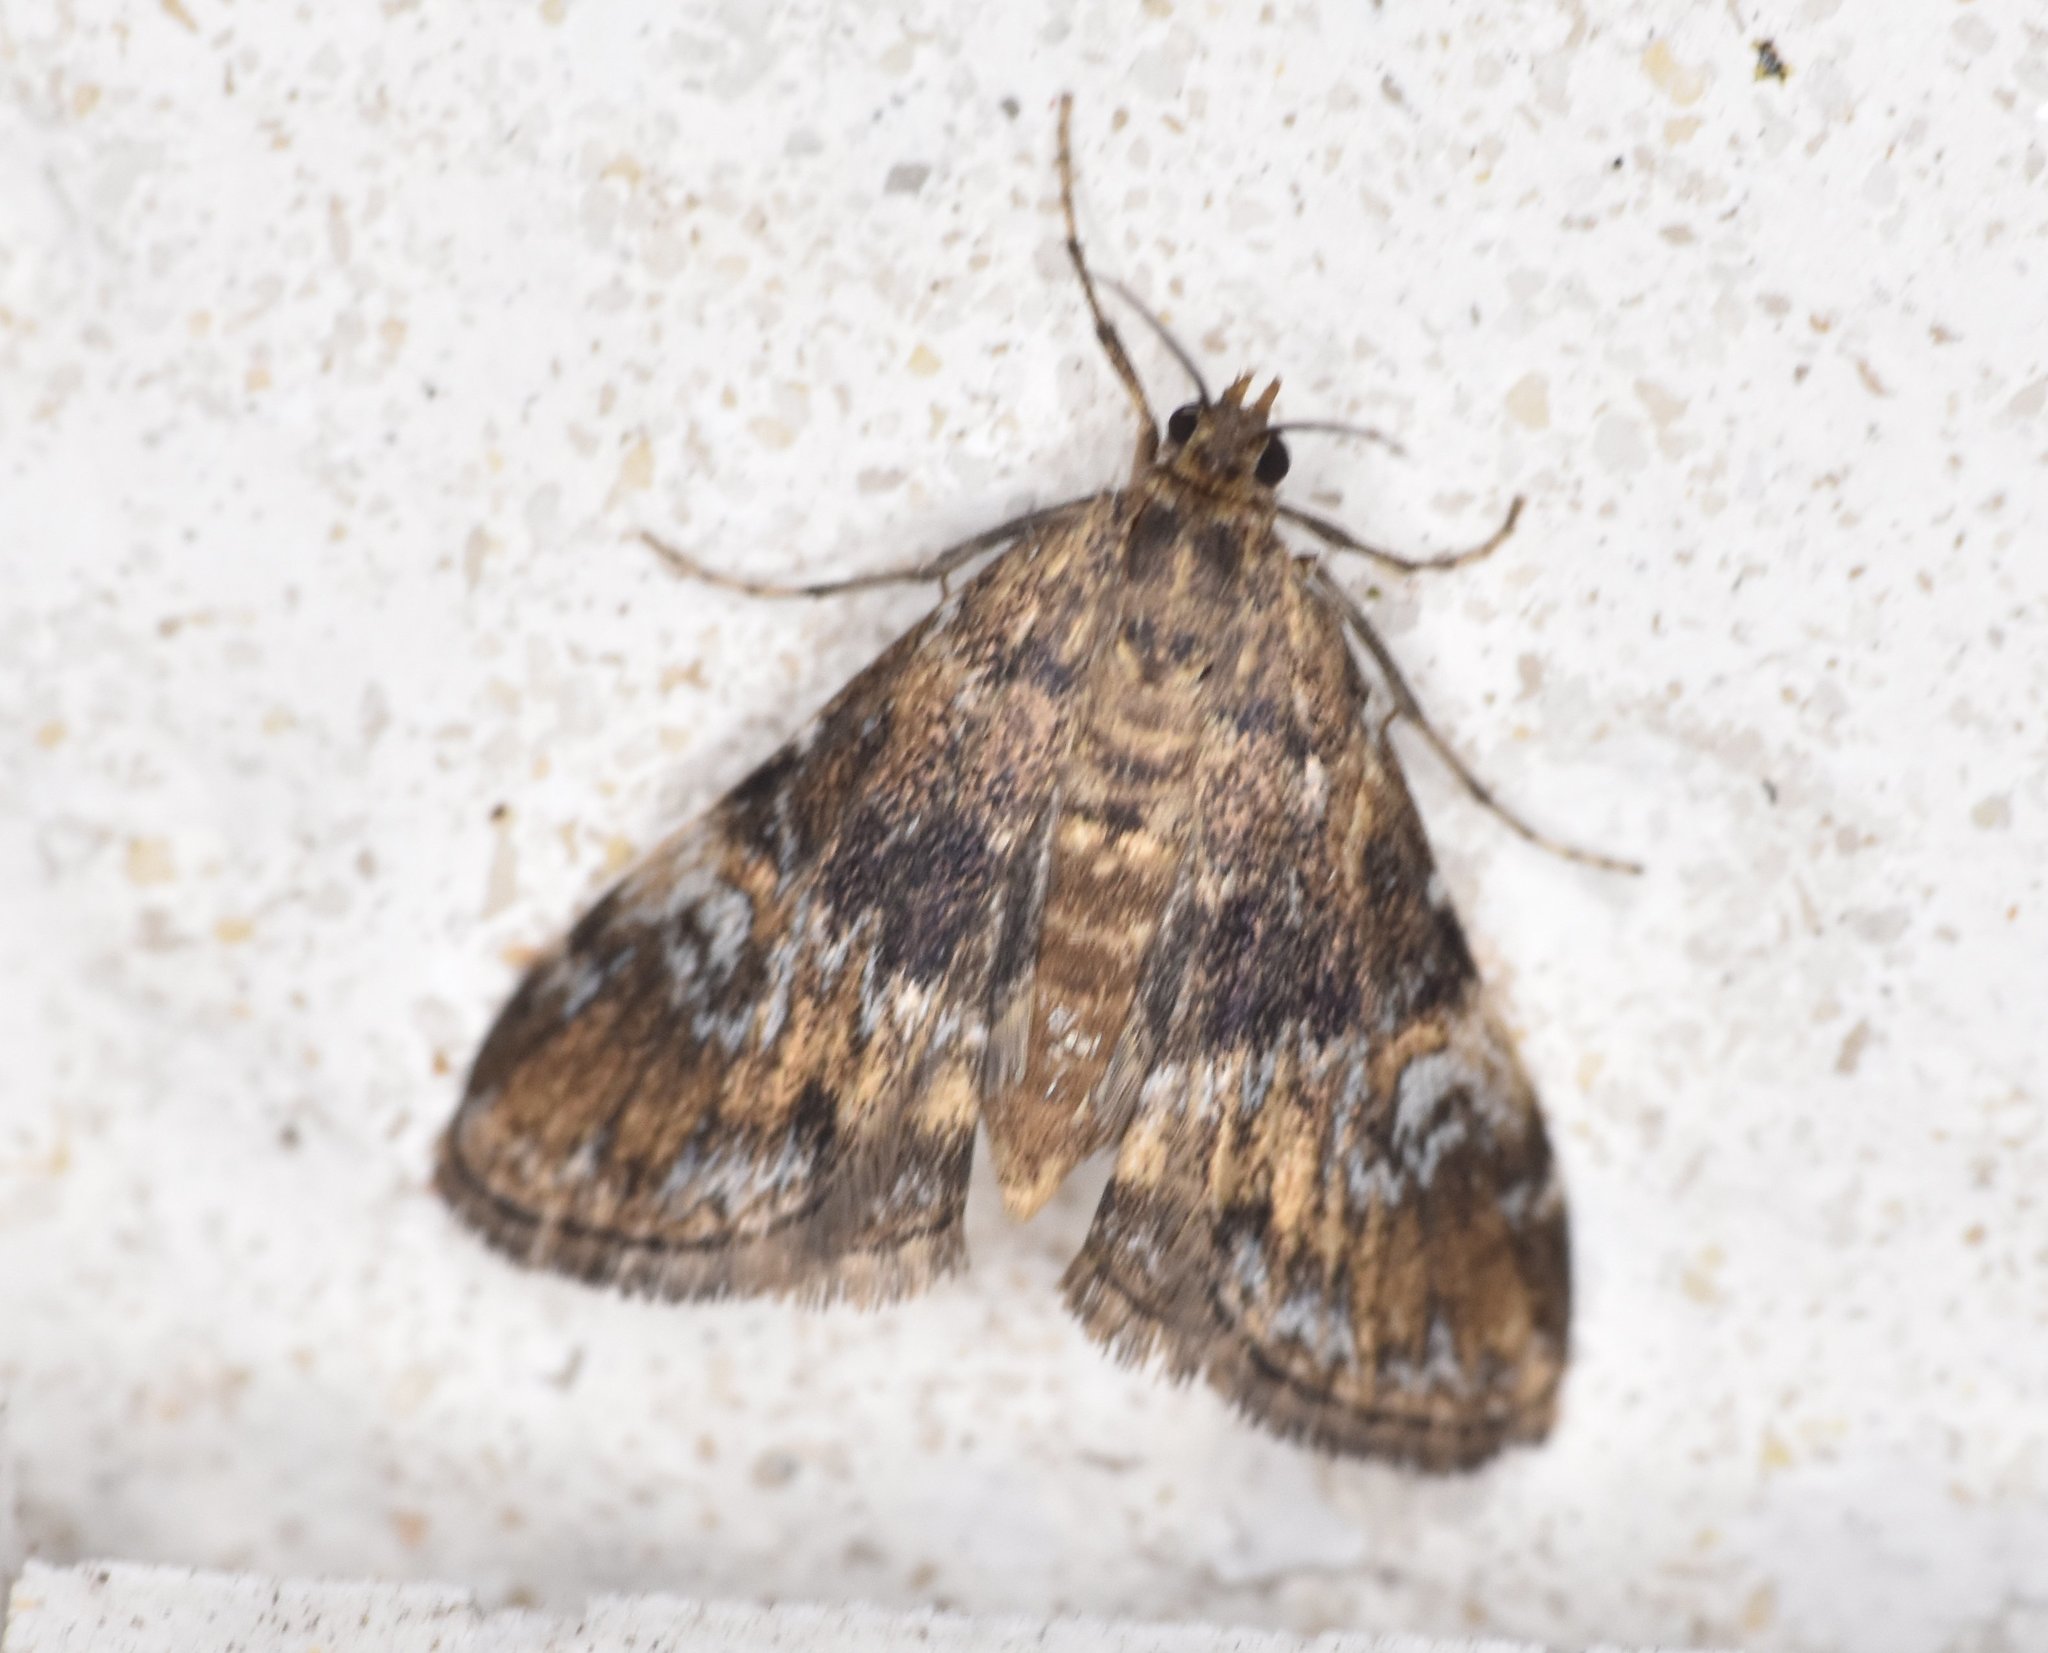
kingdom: Animalia
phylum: Arthropoda
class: Insecta
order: Lepidoptera
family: Crambidae
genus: Elophila
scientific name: Elophila obliteralis
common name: Waterlily leafcutter moth
